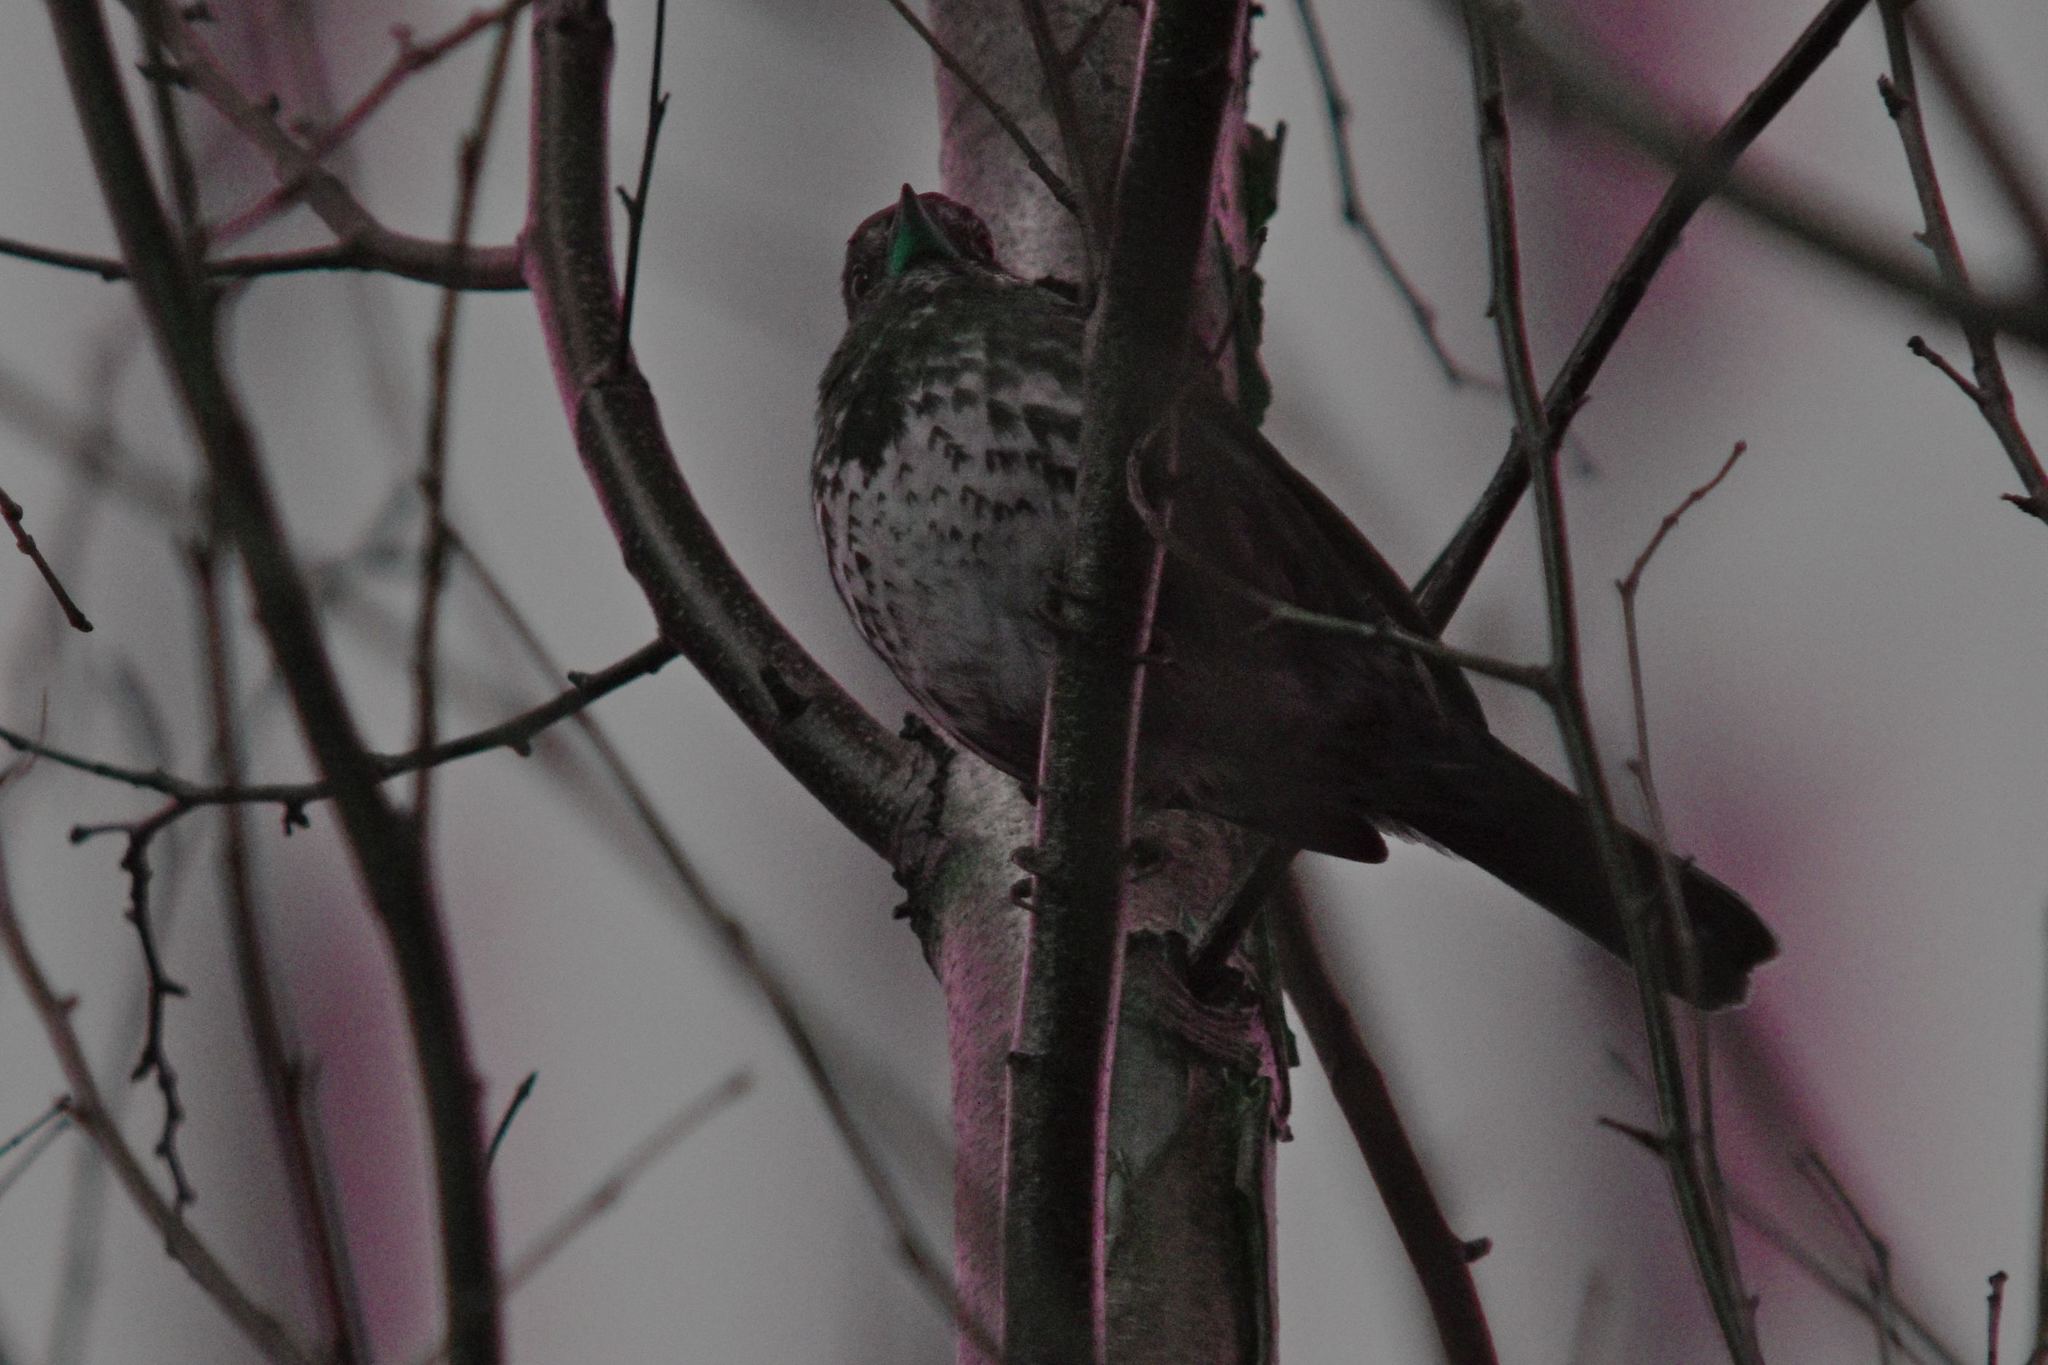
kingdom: Animalia
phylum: Chordata
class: Aves
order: Passeriformes
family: Passerellidae
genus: Passerella
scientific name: Passerella iliaca
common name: Fox sparrow
